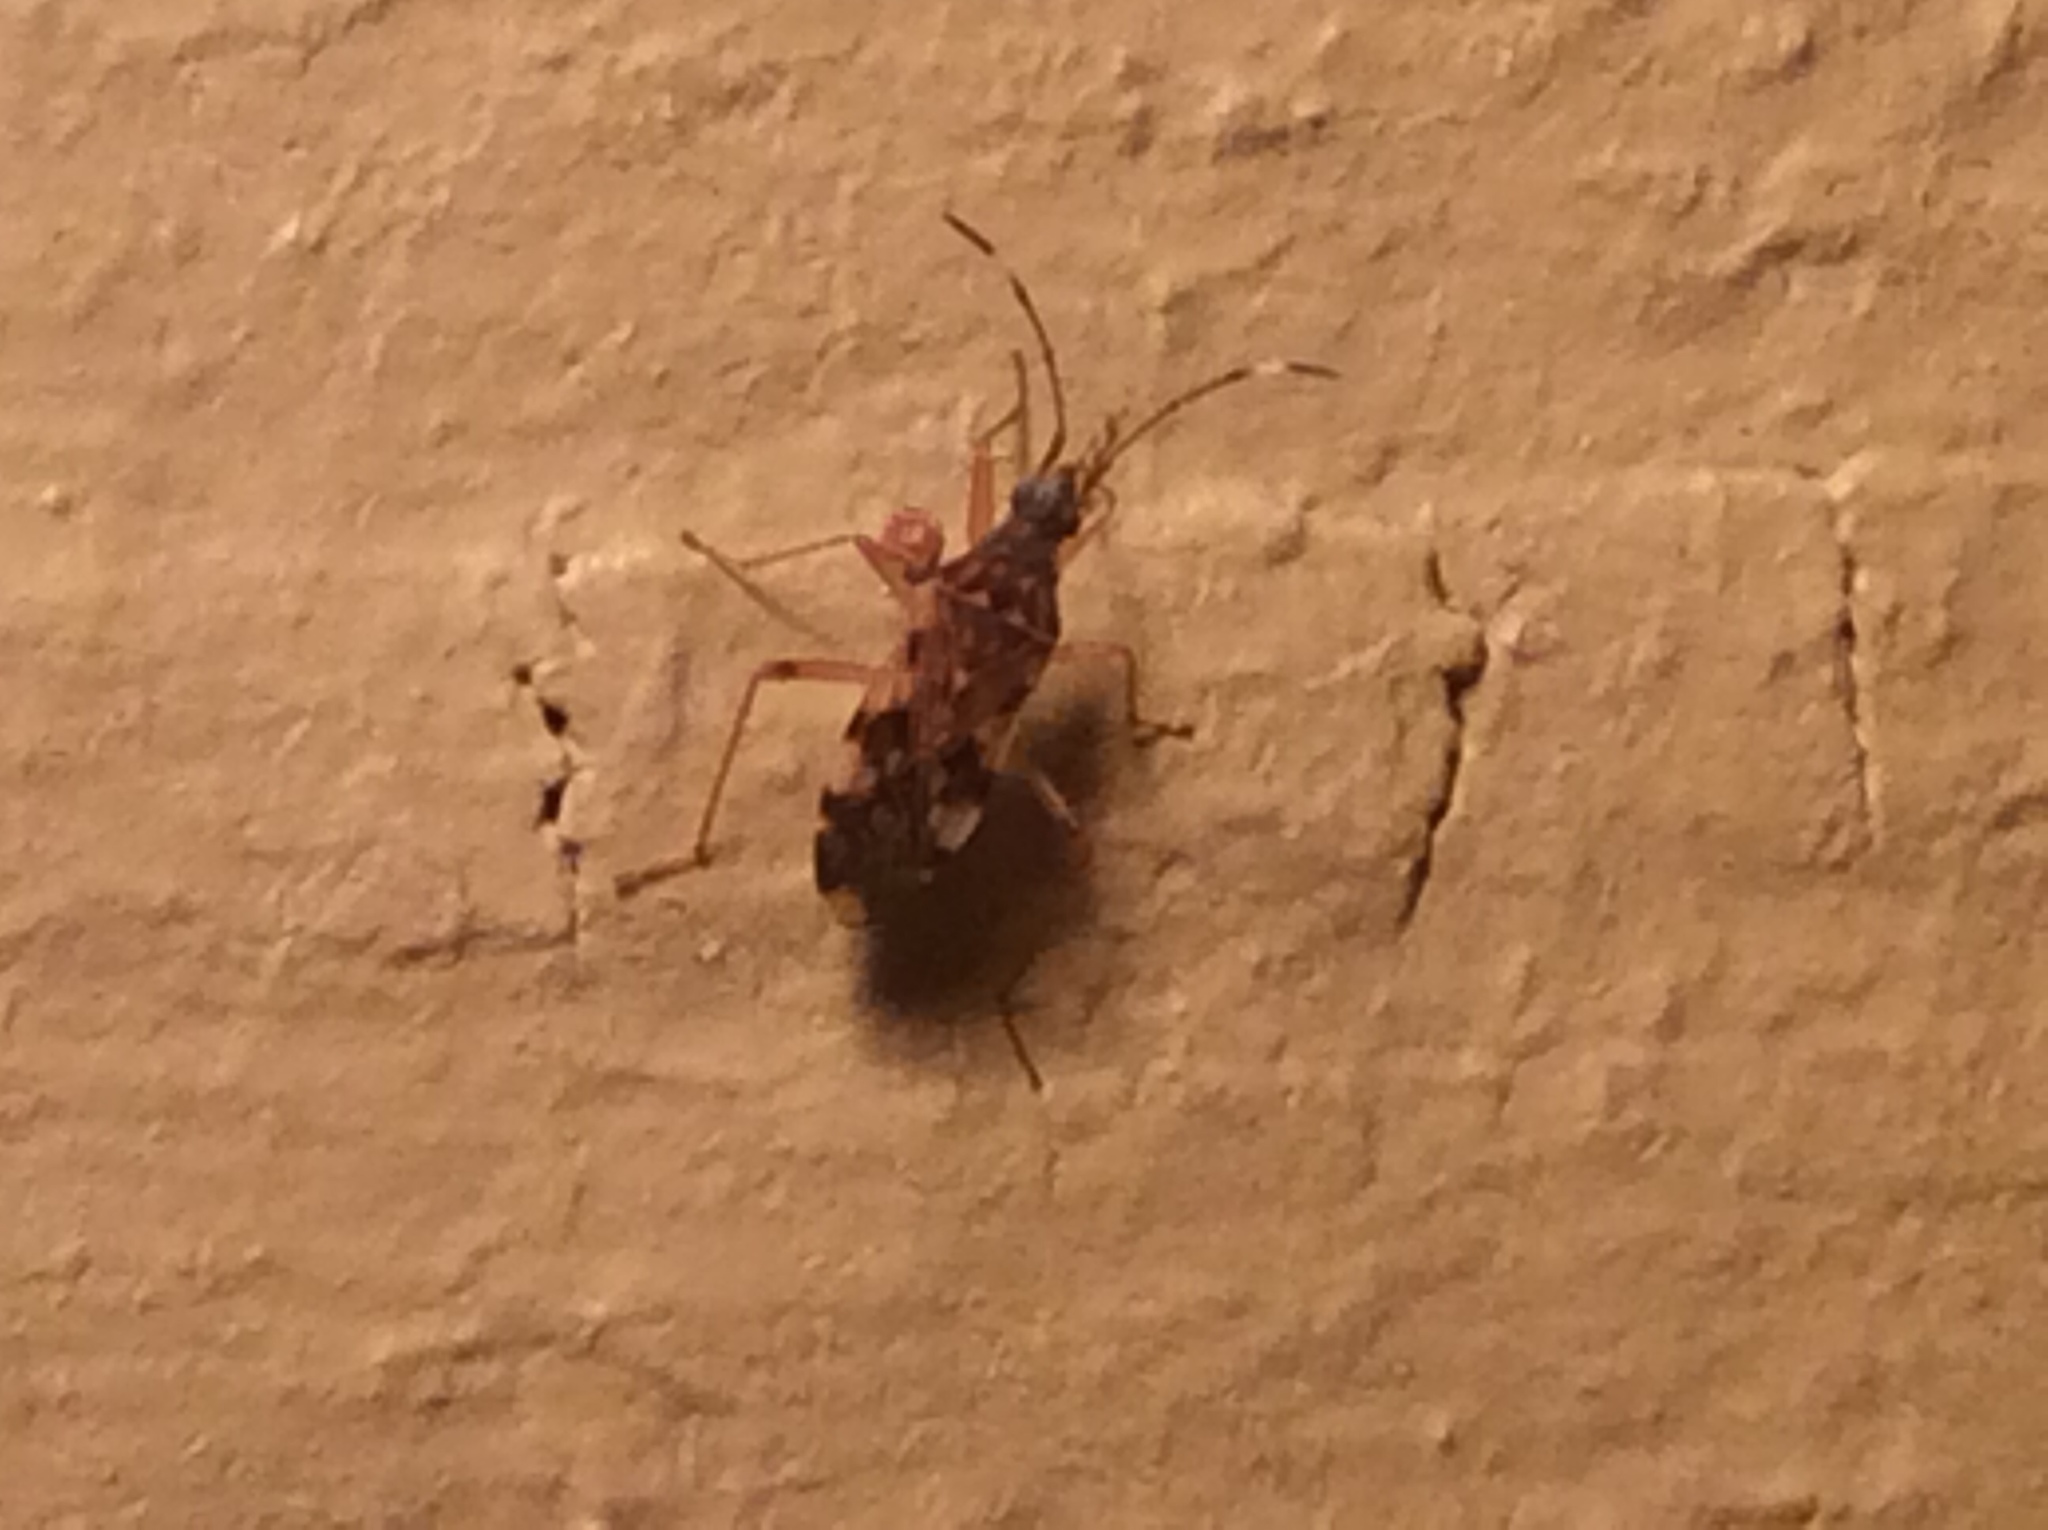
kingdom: Animalia
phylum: Arthropoda
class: Insecta
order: Hemiptera
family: Rhyparochromidae
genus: Ozophora
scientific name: Ozophora picturata
